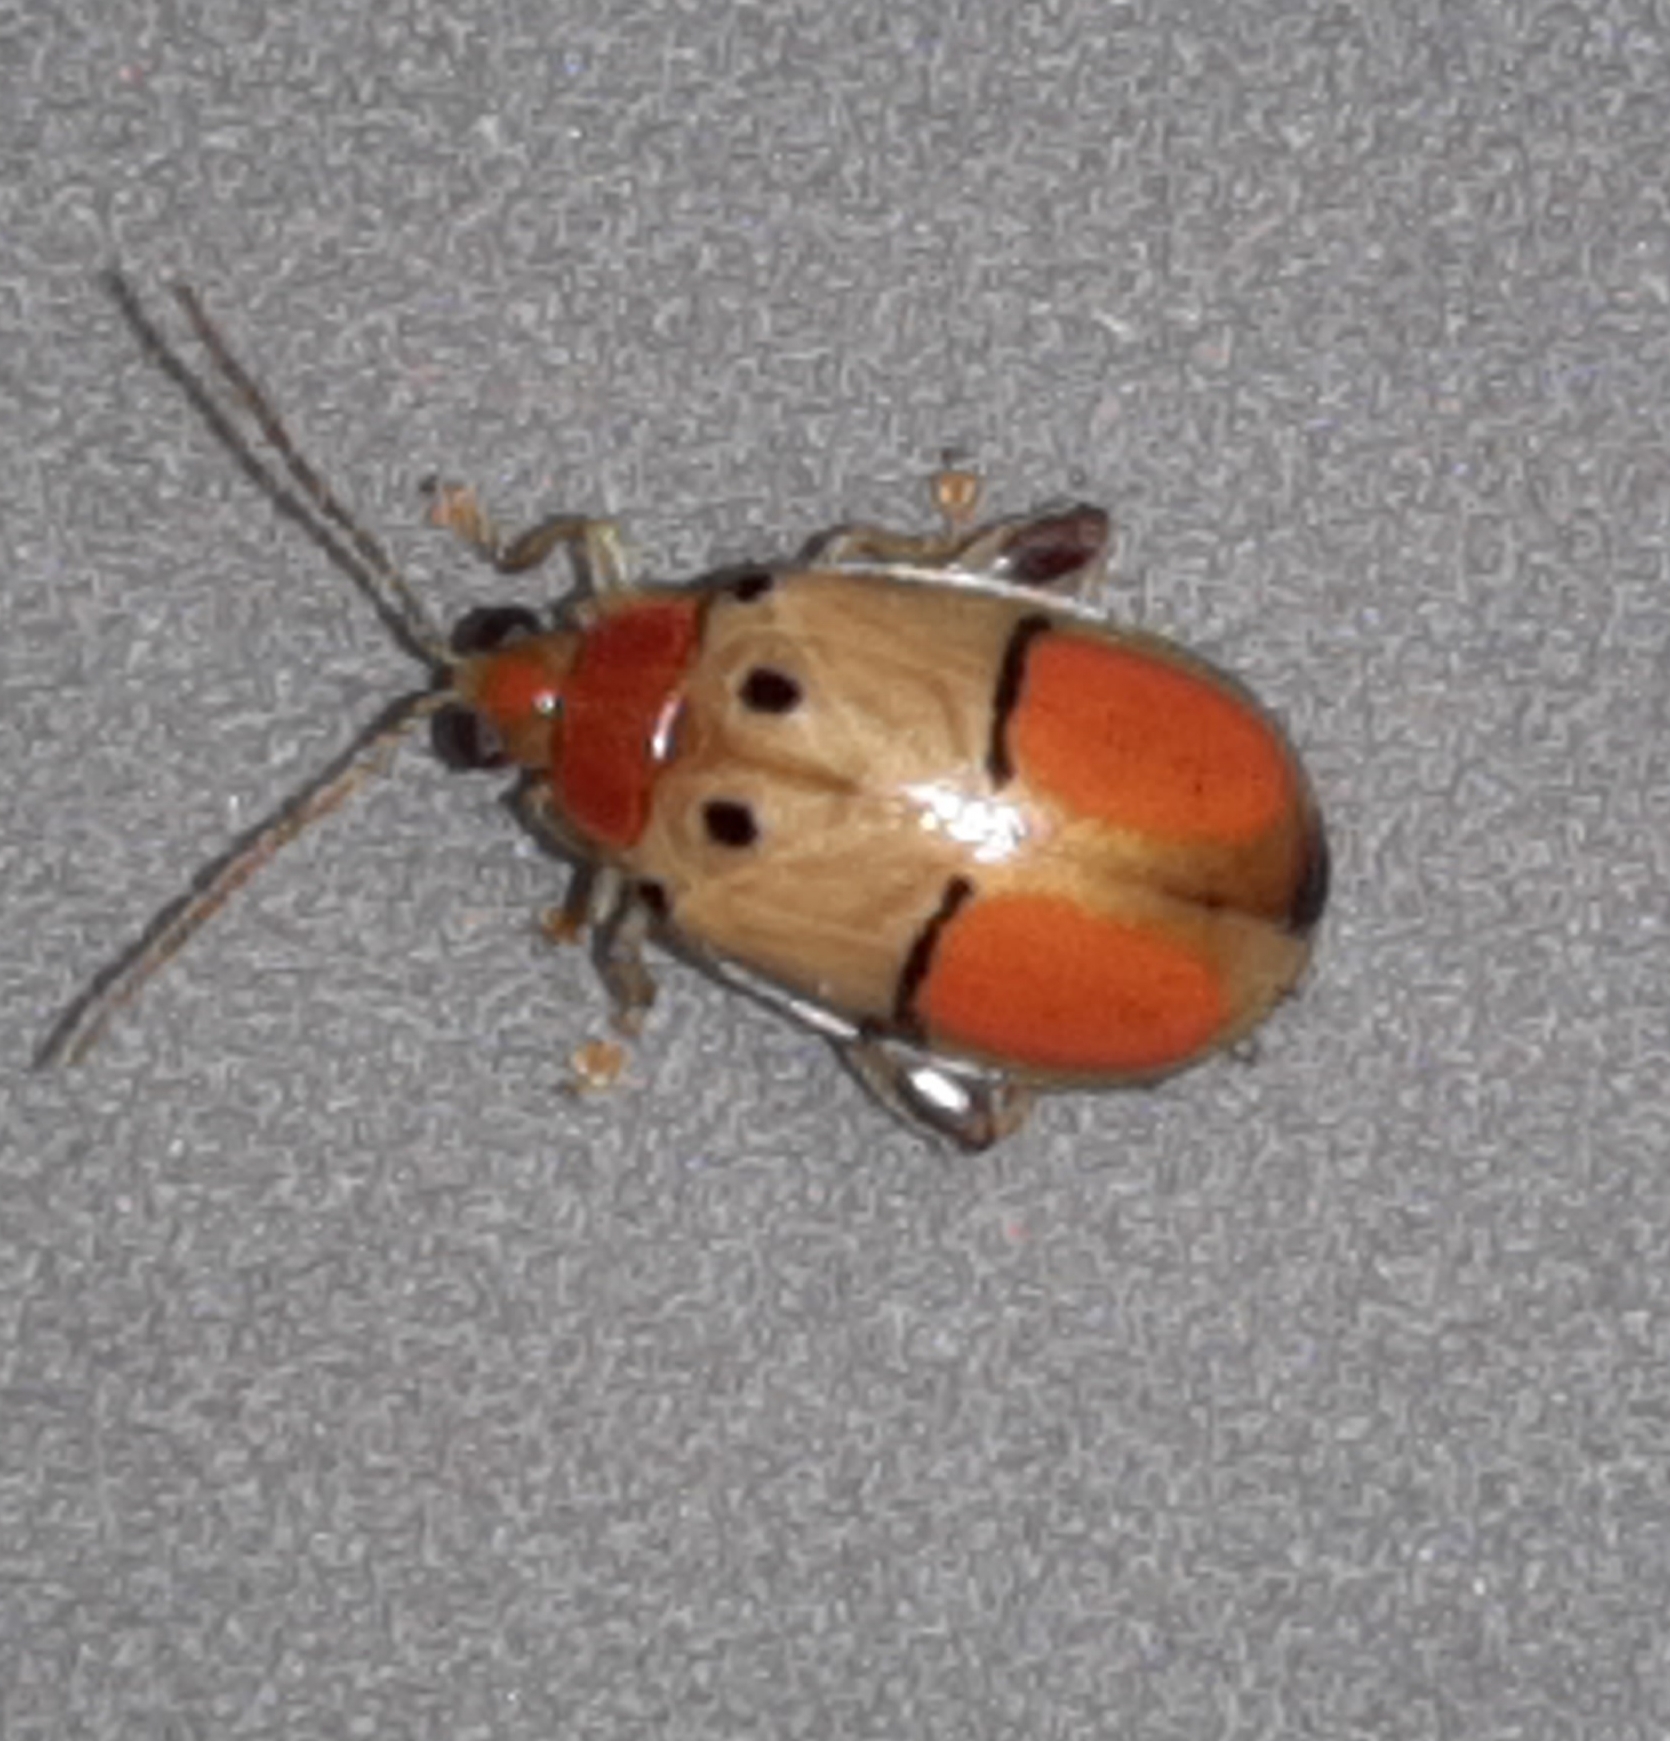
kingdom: Animalia
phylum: Arthropoda
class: Insecta
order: Coleoptera
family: Chrysomelidae
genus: Walterianella
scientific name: Walterianella humeralis
